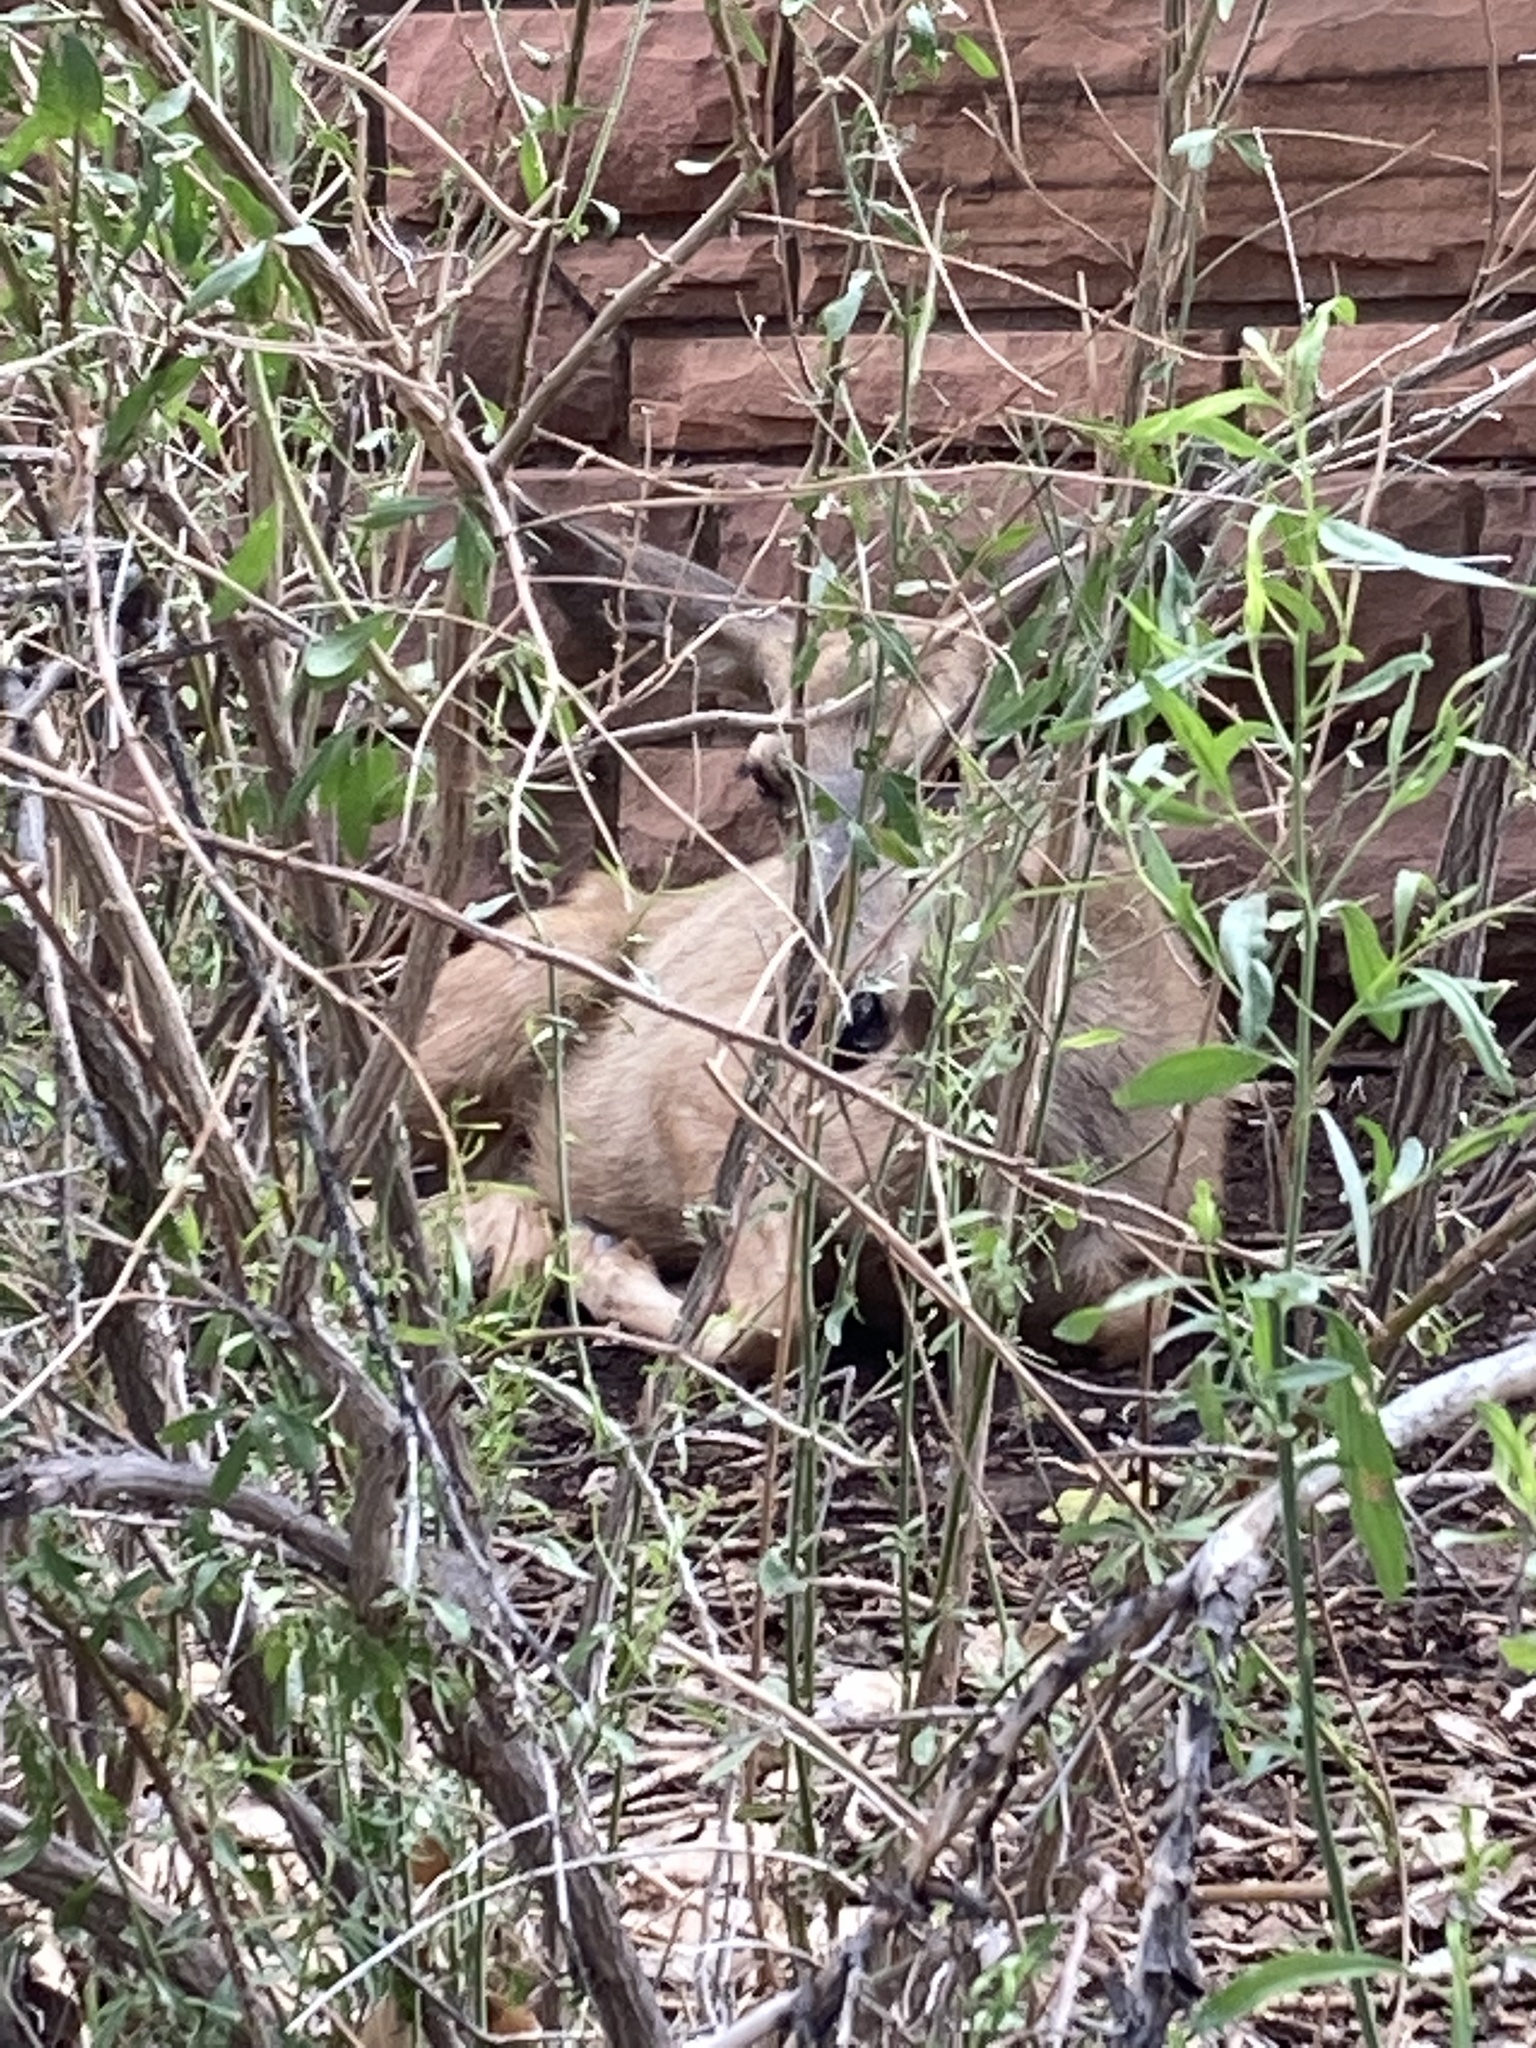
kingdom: Animalia
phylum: Chordata
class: Mammalia
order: Artiodactyla
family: Cervidae
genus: Odocoileus
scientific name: Odocoileus hemionus
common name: Mule deer
